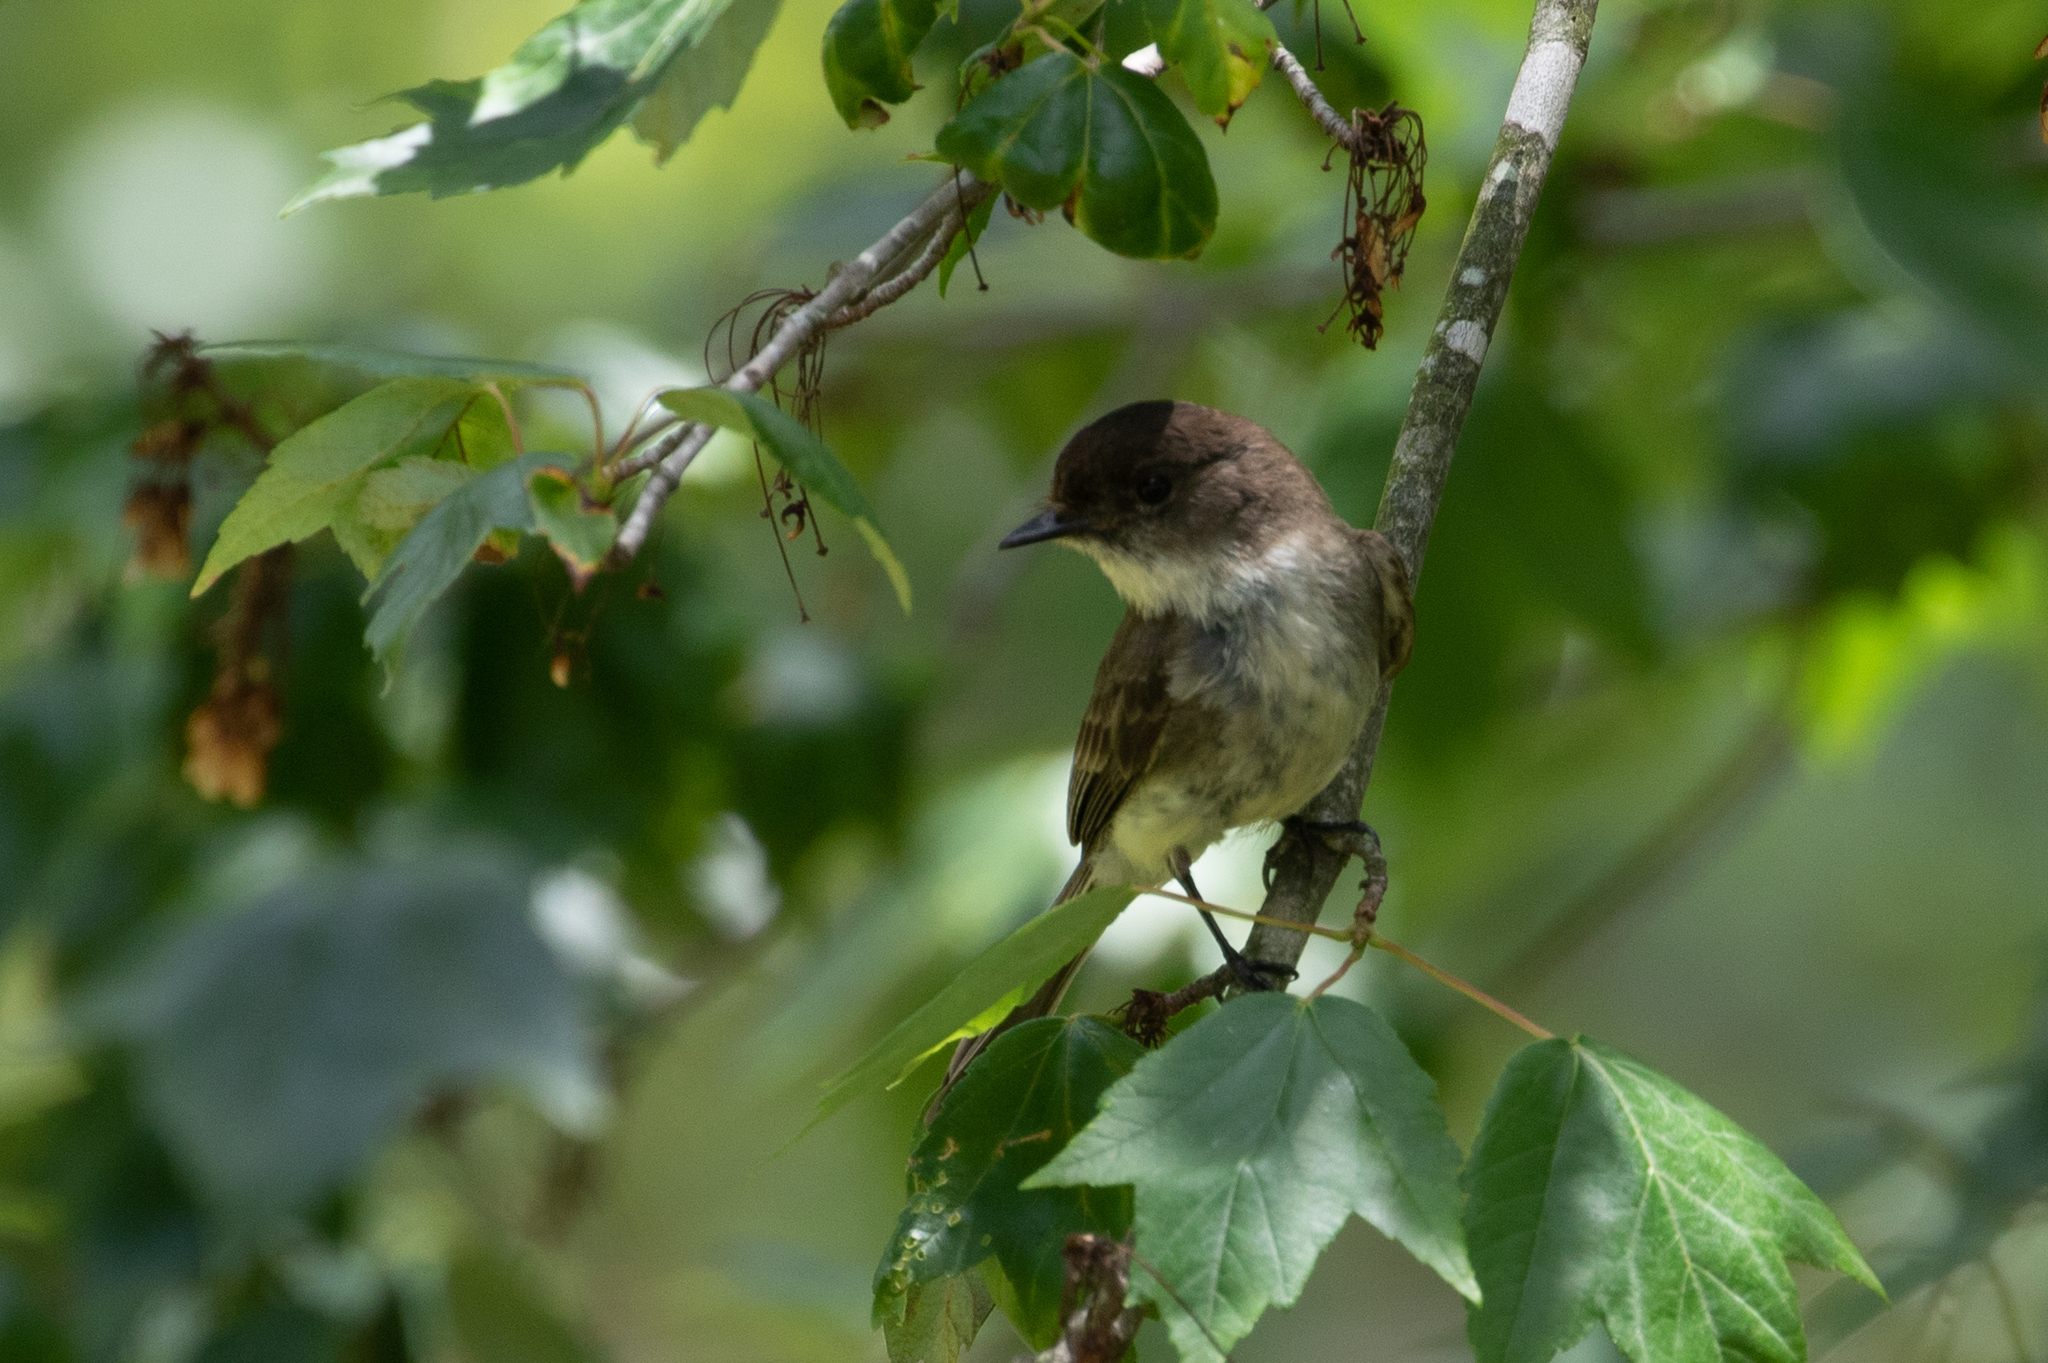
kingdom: Animalia
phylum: Chordata
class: Aves
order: Passeriformes
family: Tyrannidae
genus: Sayornis
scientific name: Sayornis phoebe
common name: Eastern phoebe
